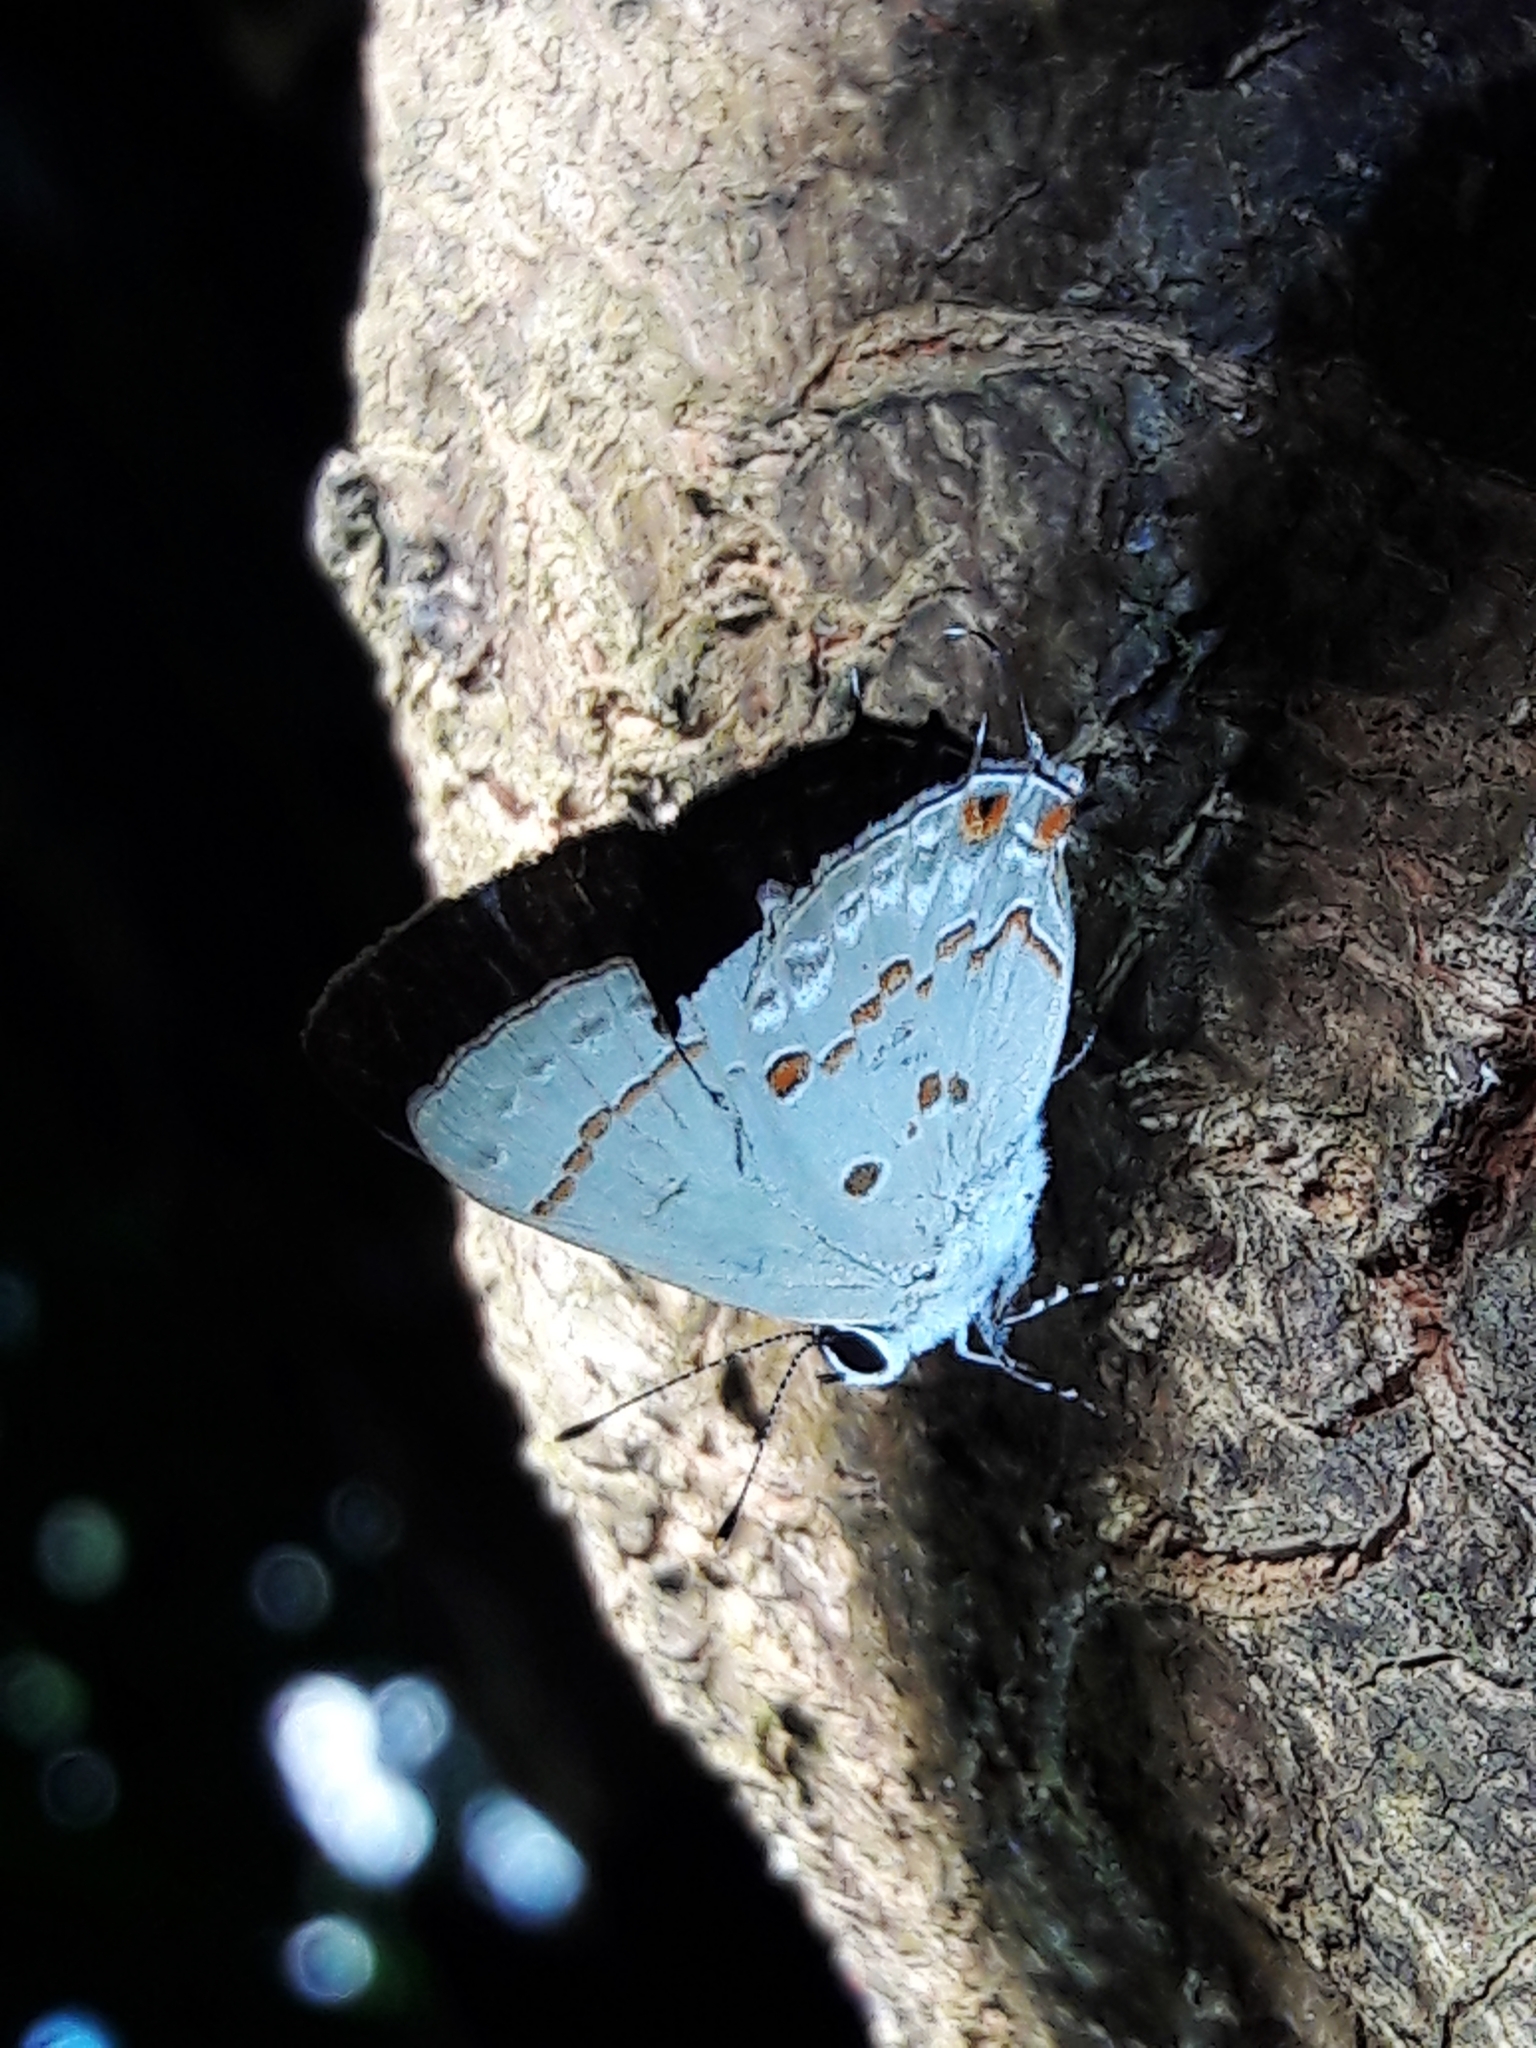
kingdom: Animalia
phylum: Arthropoda
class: Insecta
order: Lepidoptera
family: Lycaenidae
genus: Thecla
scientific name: Thecla ziba
